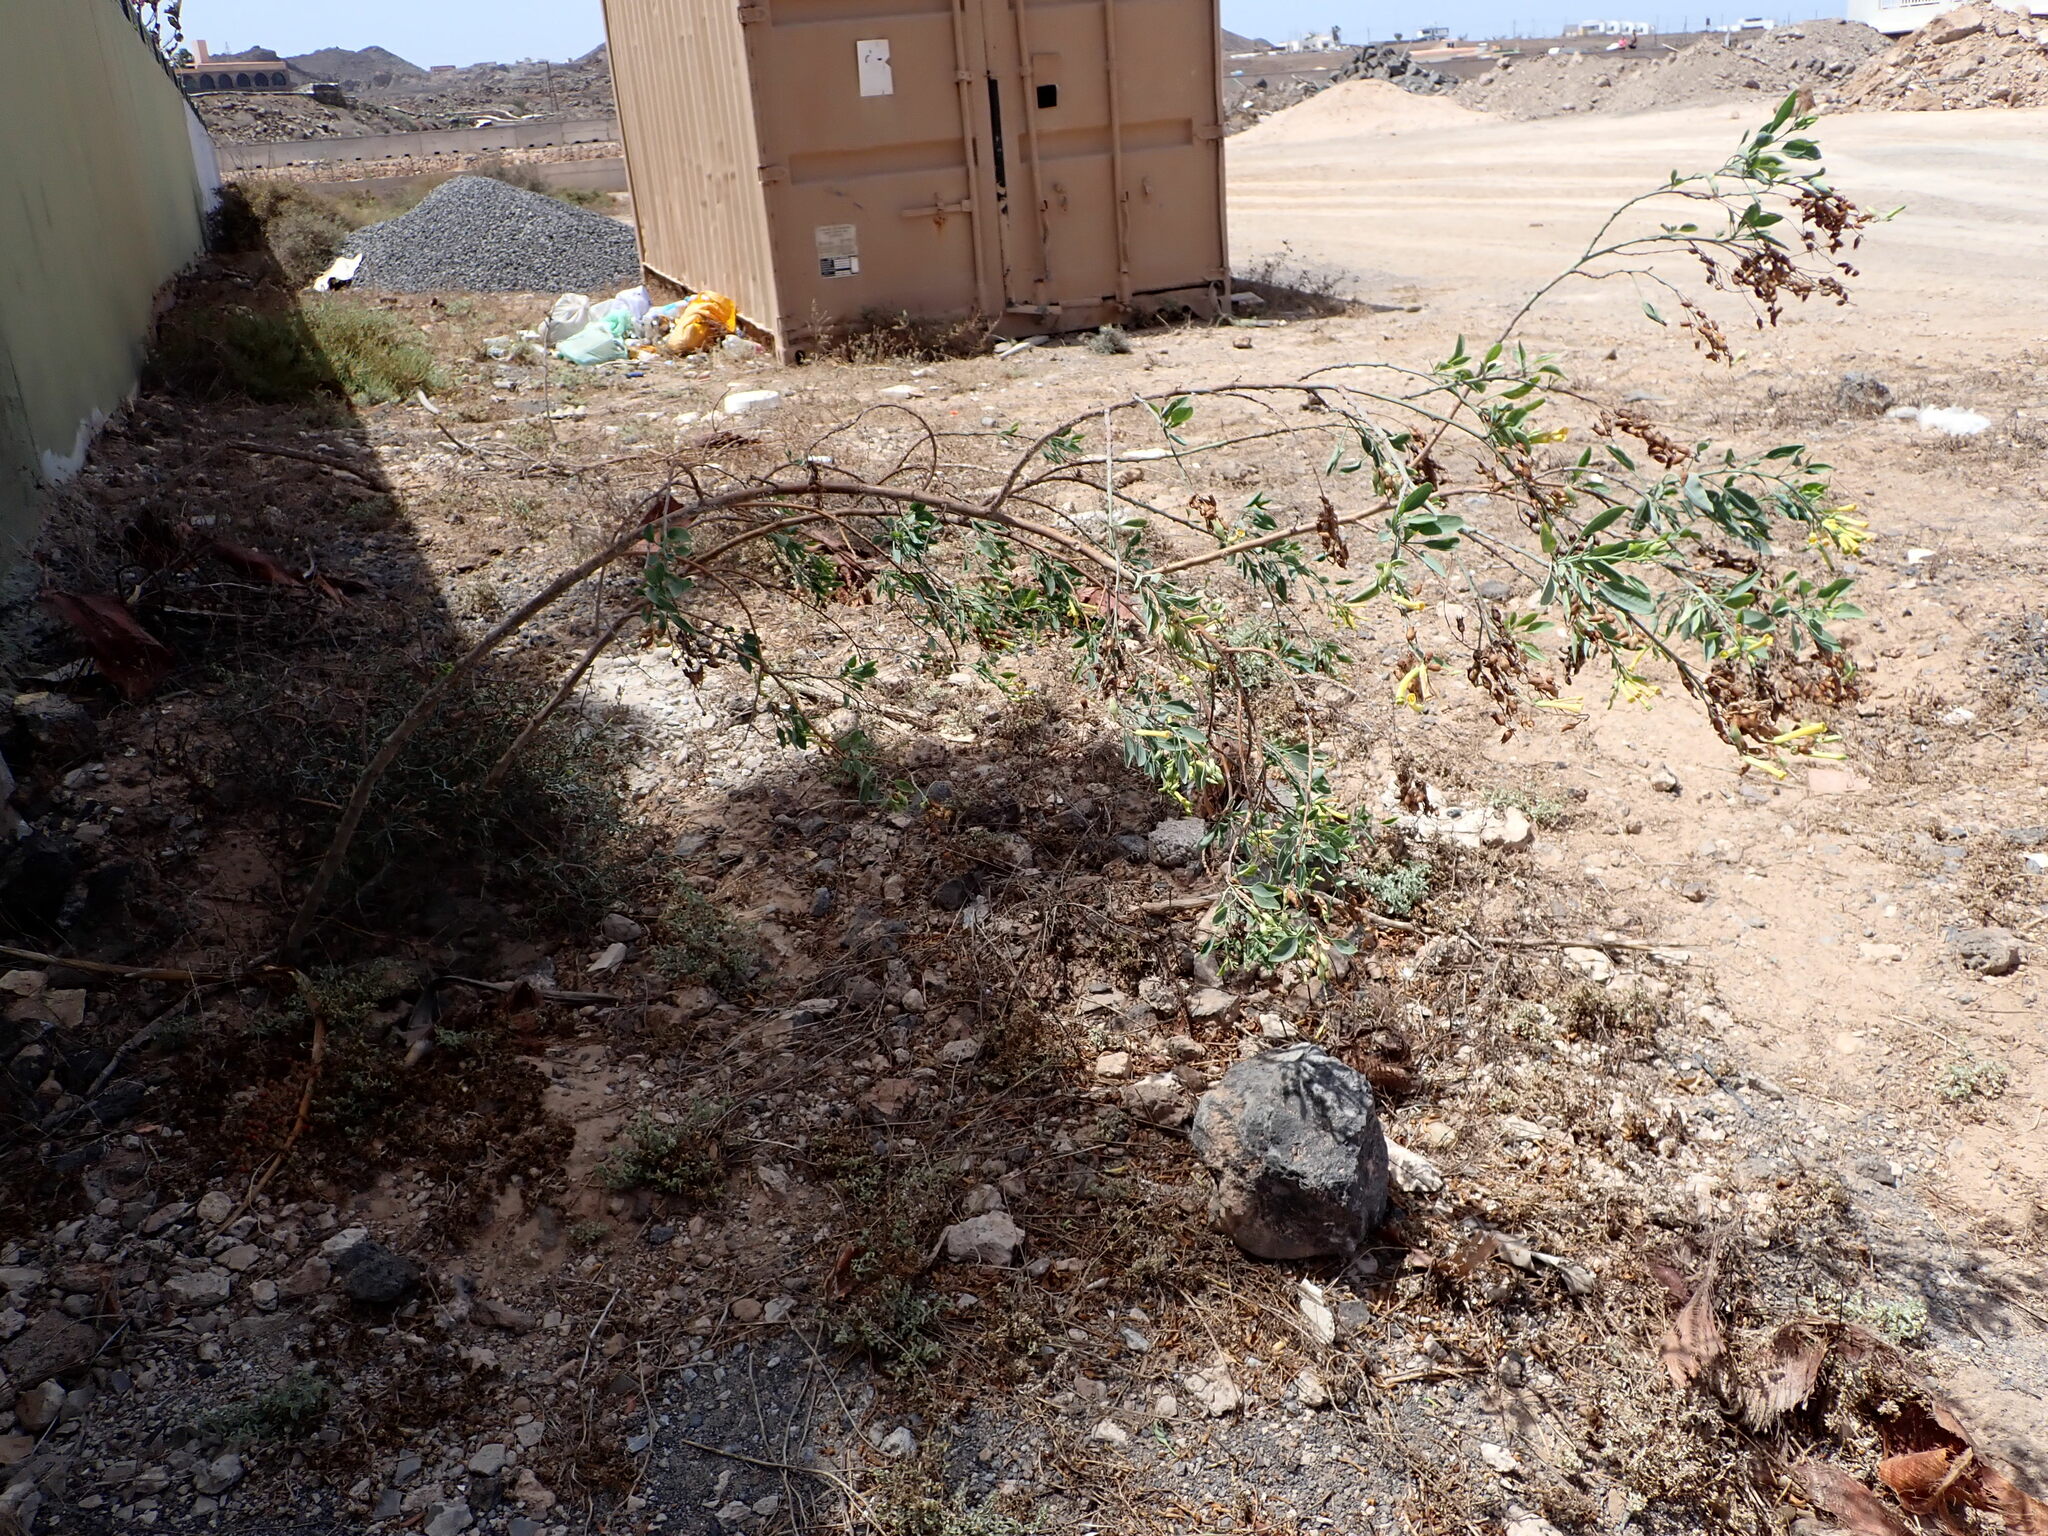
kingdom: Plantae
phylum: Tracheophyta
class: Magnoliopsida
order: Solanales
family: Solanaceae
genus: Nicotiana
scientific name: Nicotiana glauca
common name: Tree tobacco
